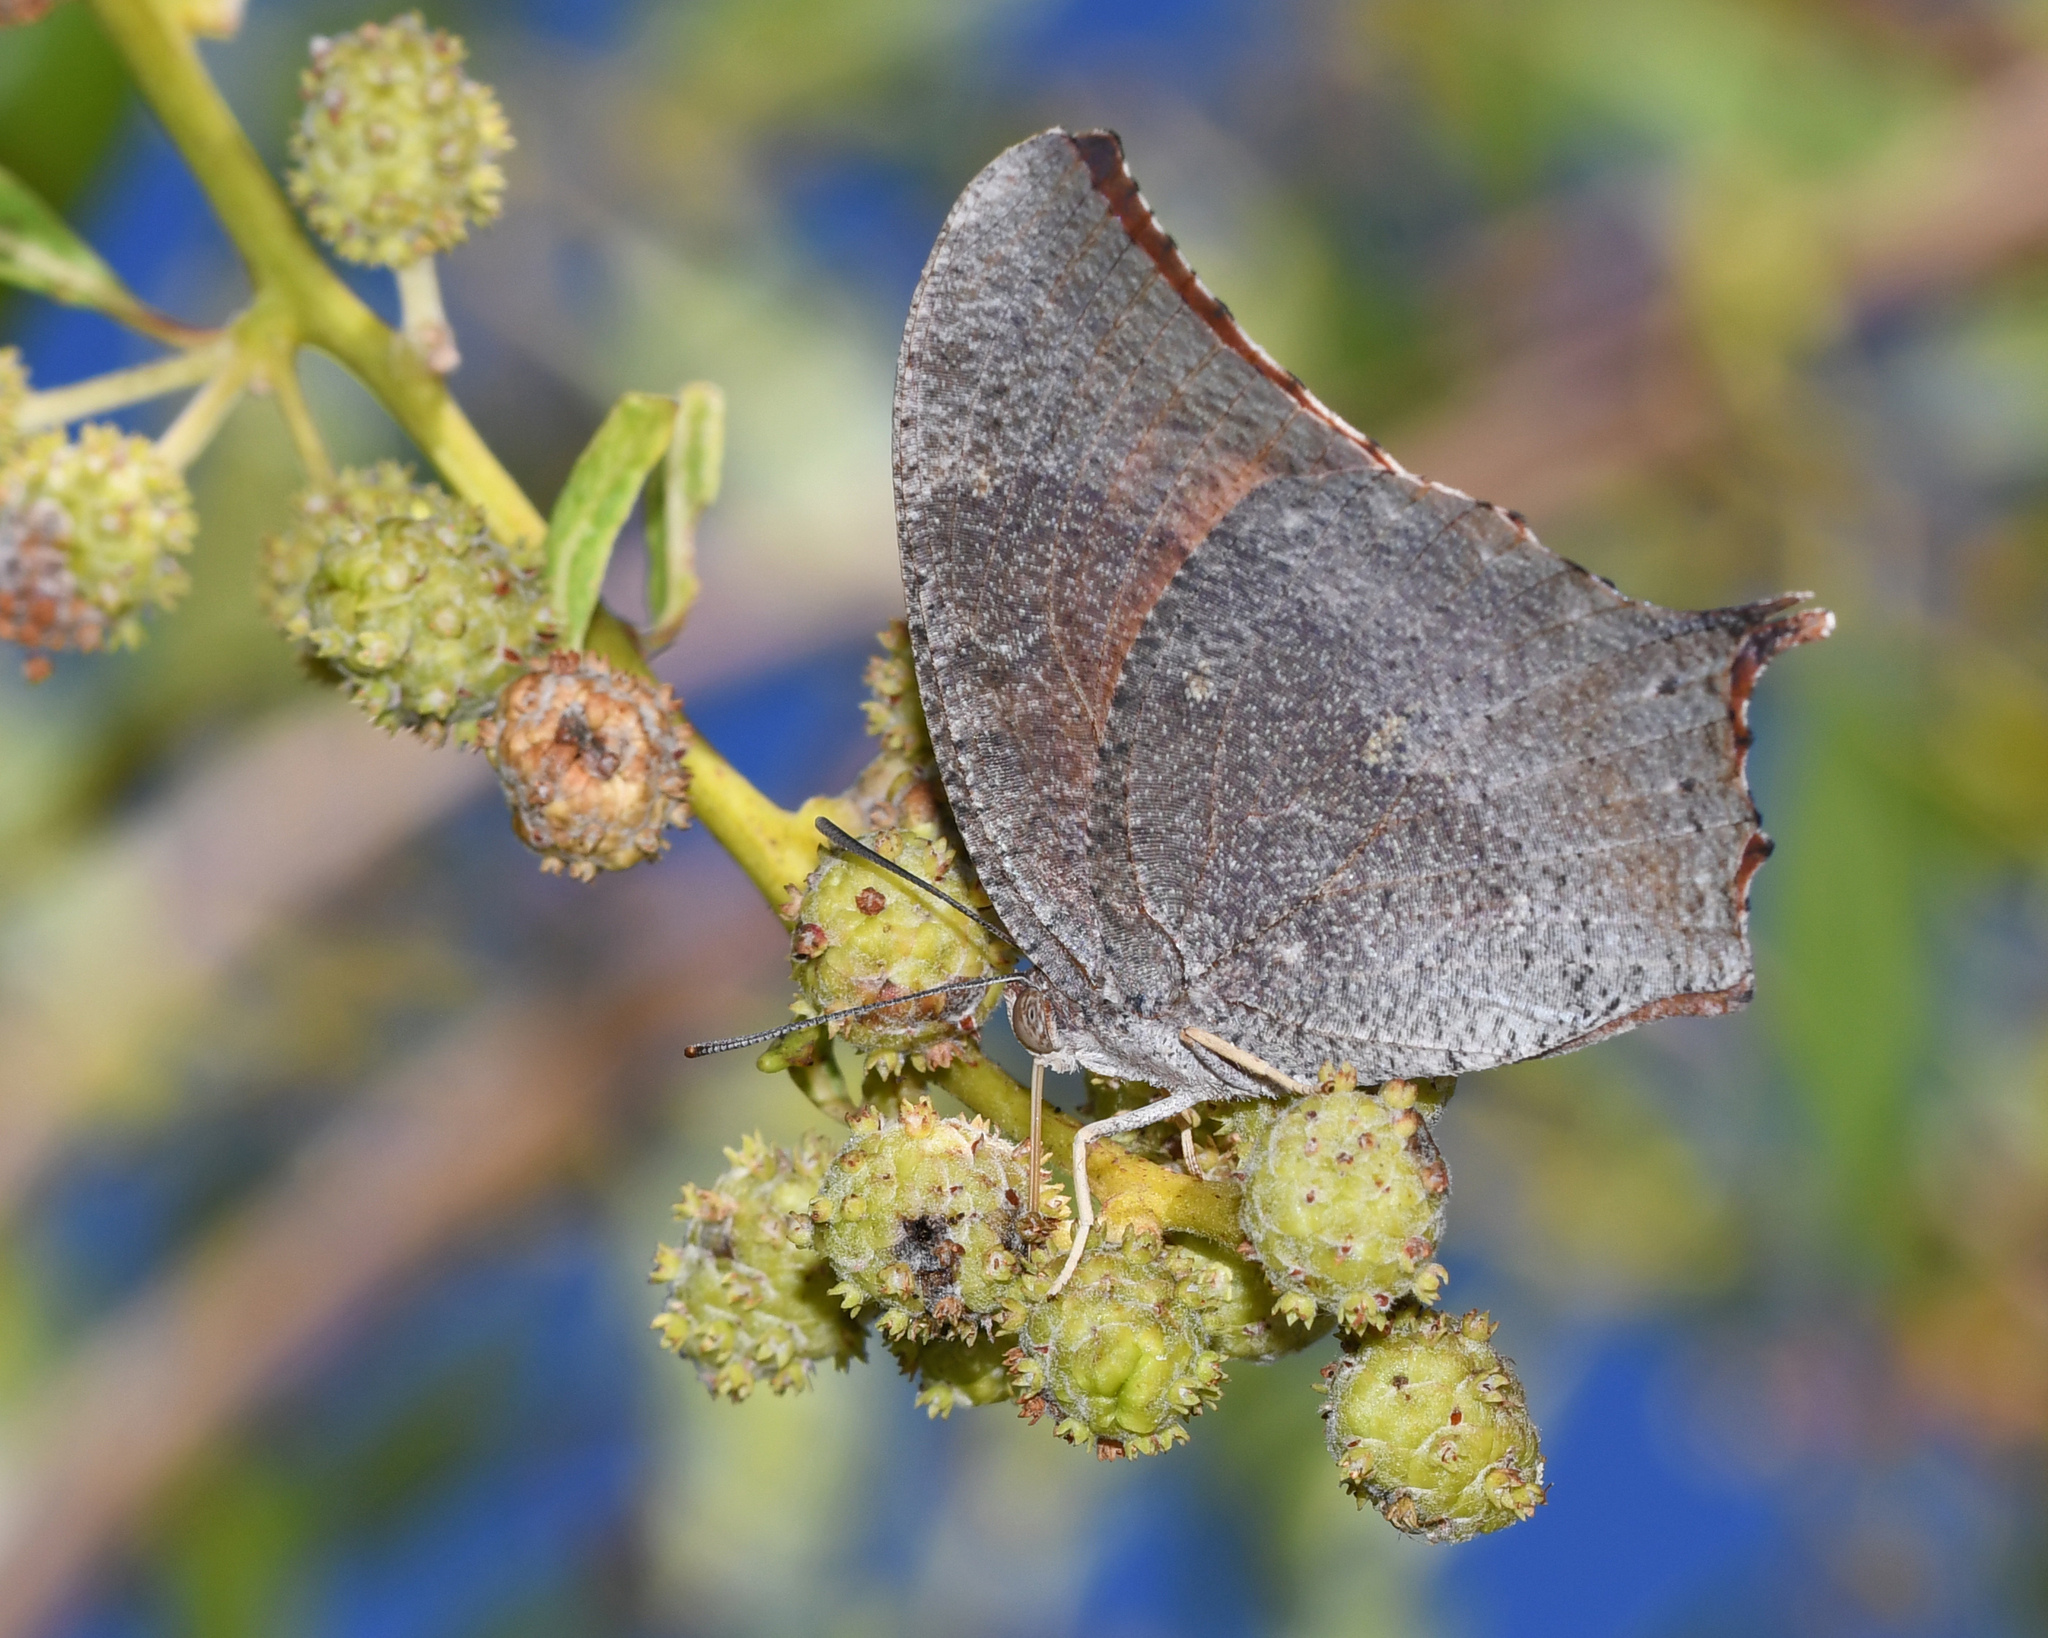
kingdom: Animalia
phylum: Arthropoda
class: Insecta
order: Lepidoptera
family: Nymphalidae
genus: Anaea
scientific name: Anaea troglodyta
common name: Florida leafwing
